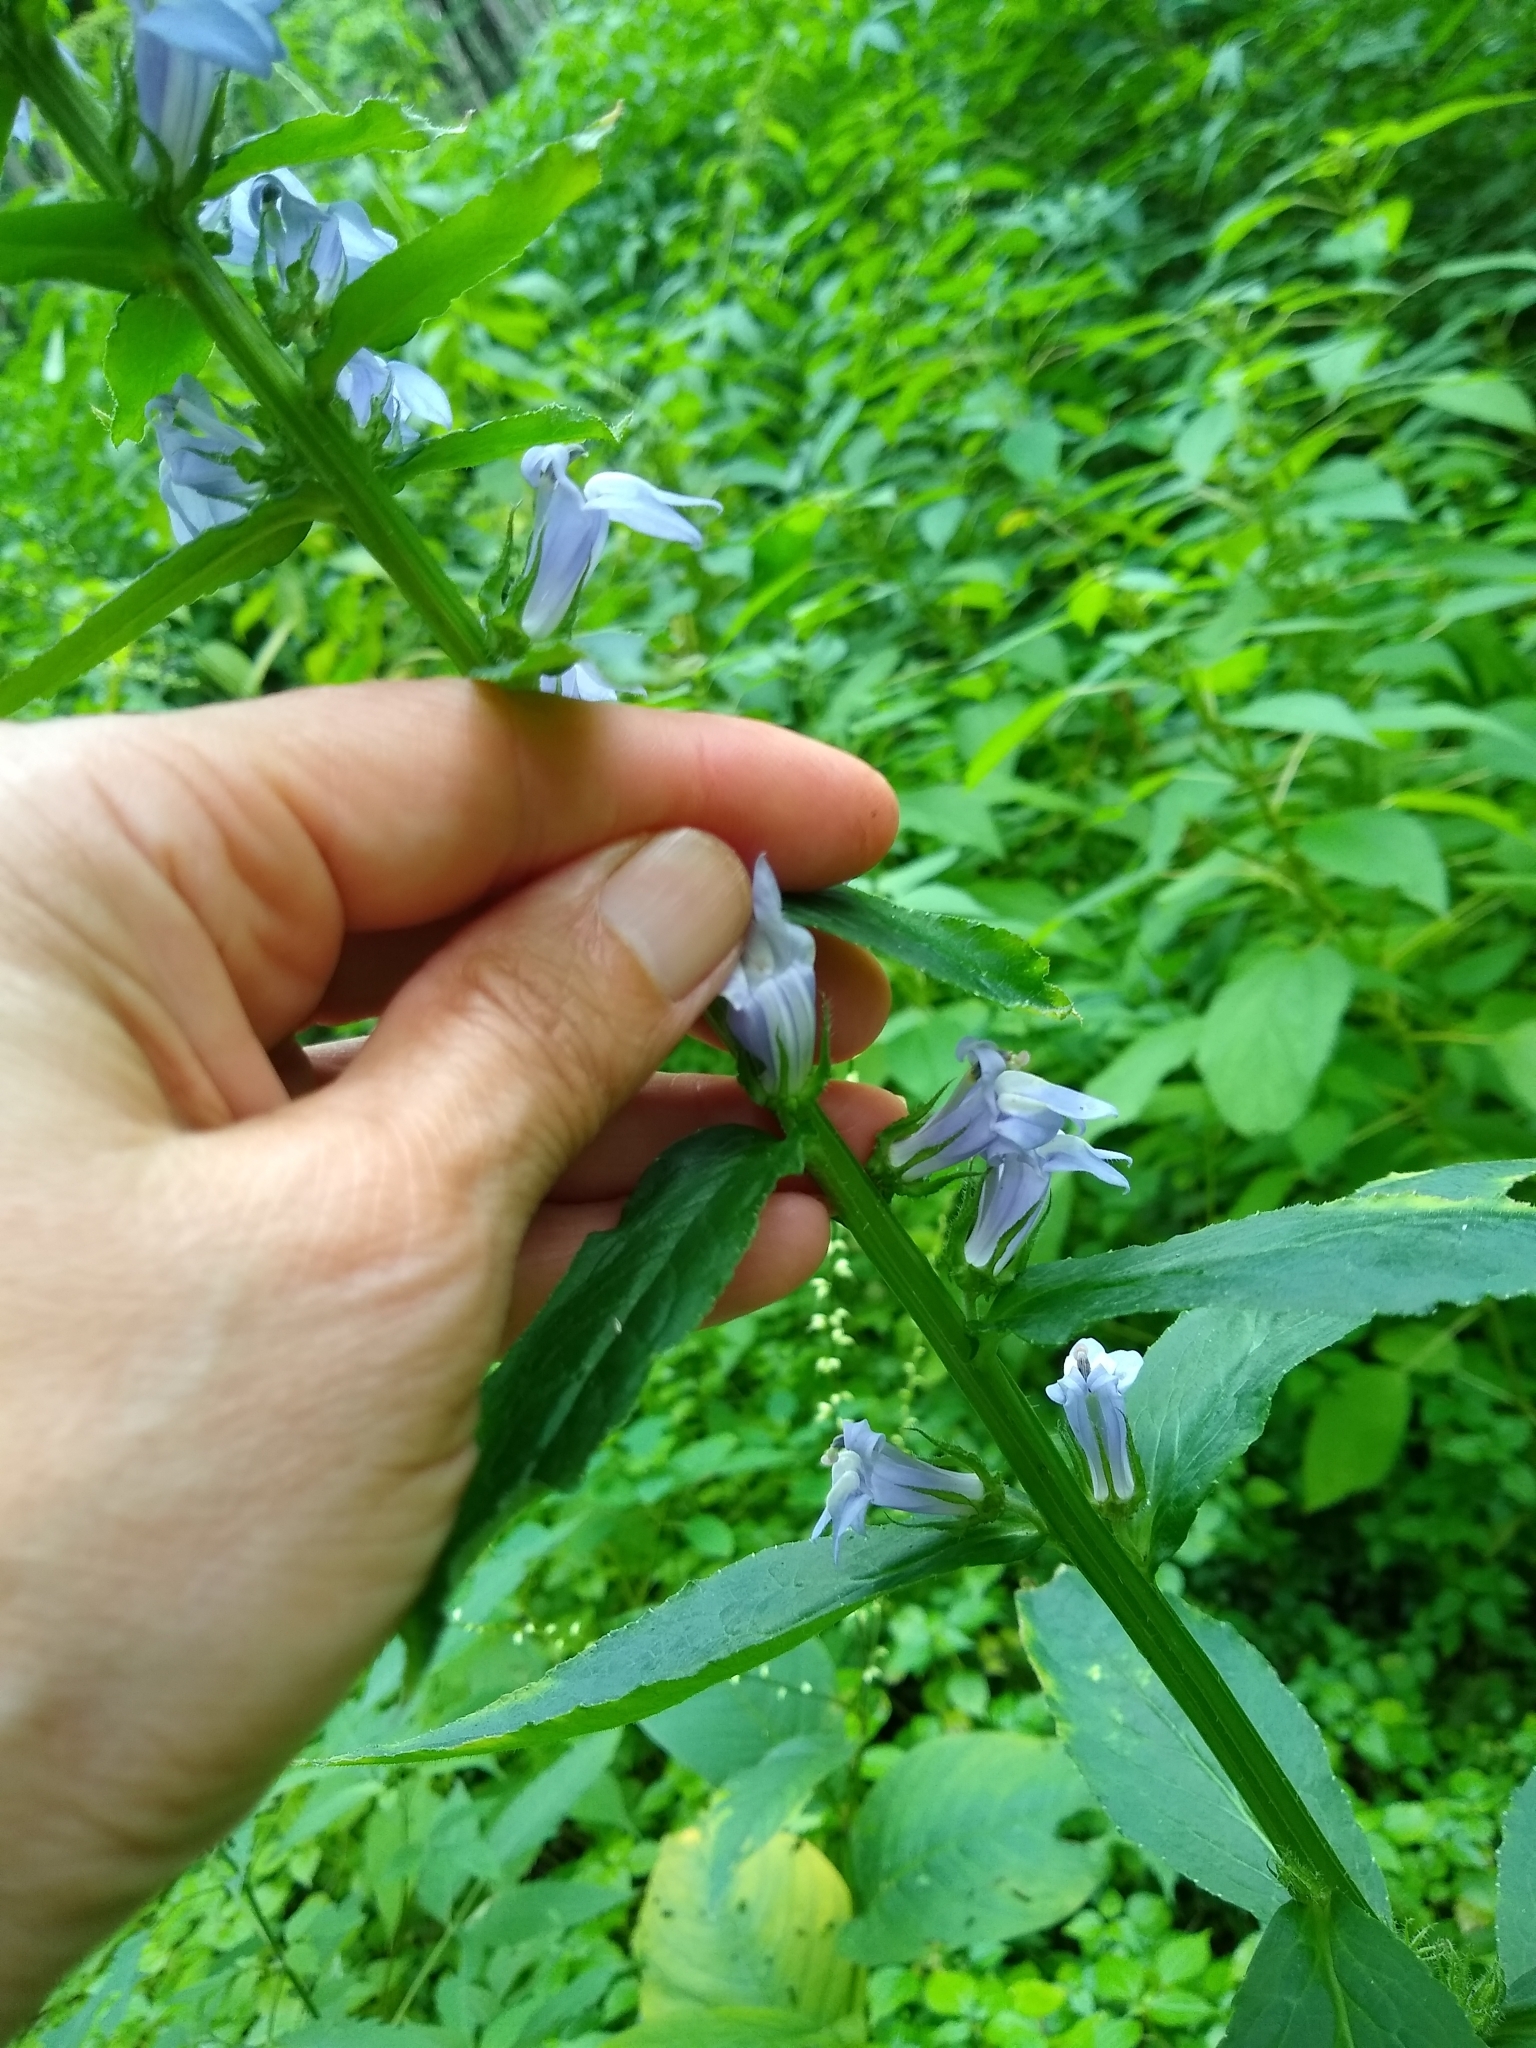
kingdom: Plantae
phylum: Tracheophyta
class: Magnoliopsida
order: Asterales
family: Campanulaceae
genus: Lobelia
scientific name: Lobelia siphilitica
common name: Great lobelia
